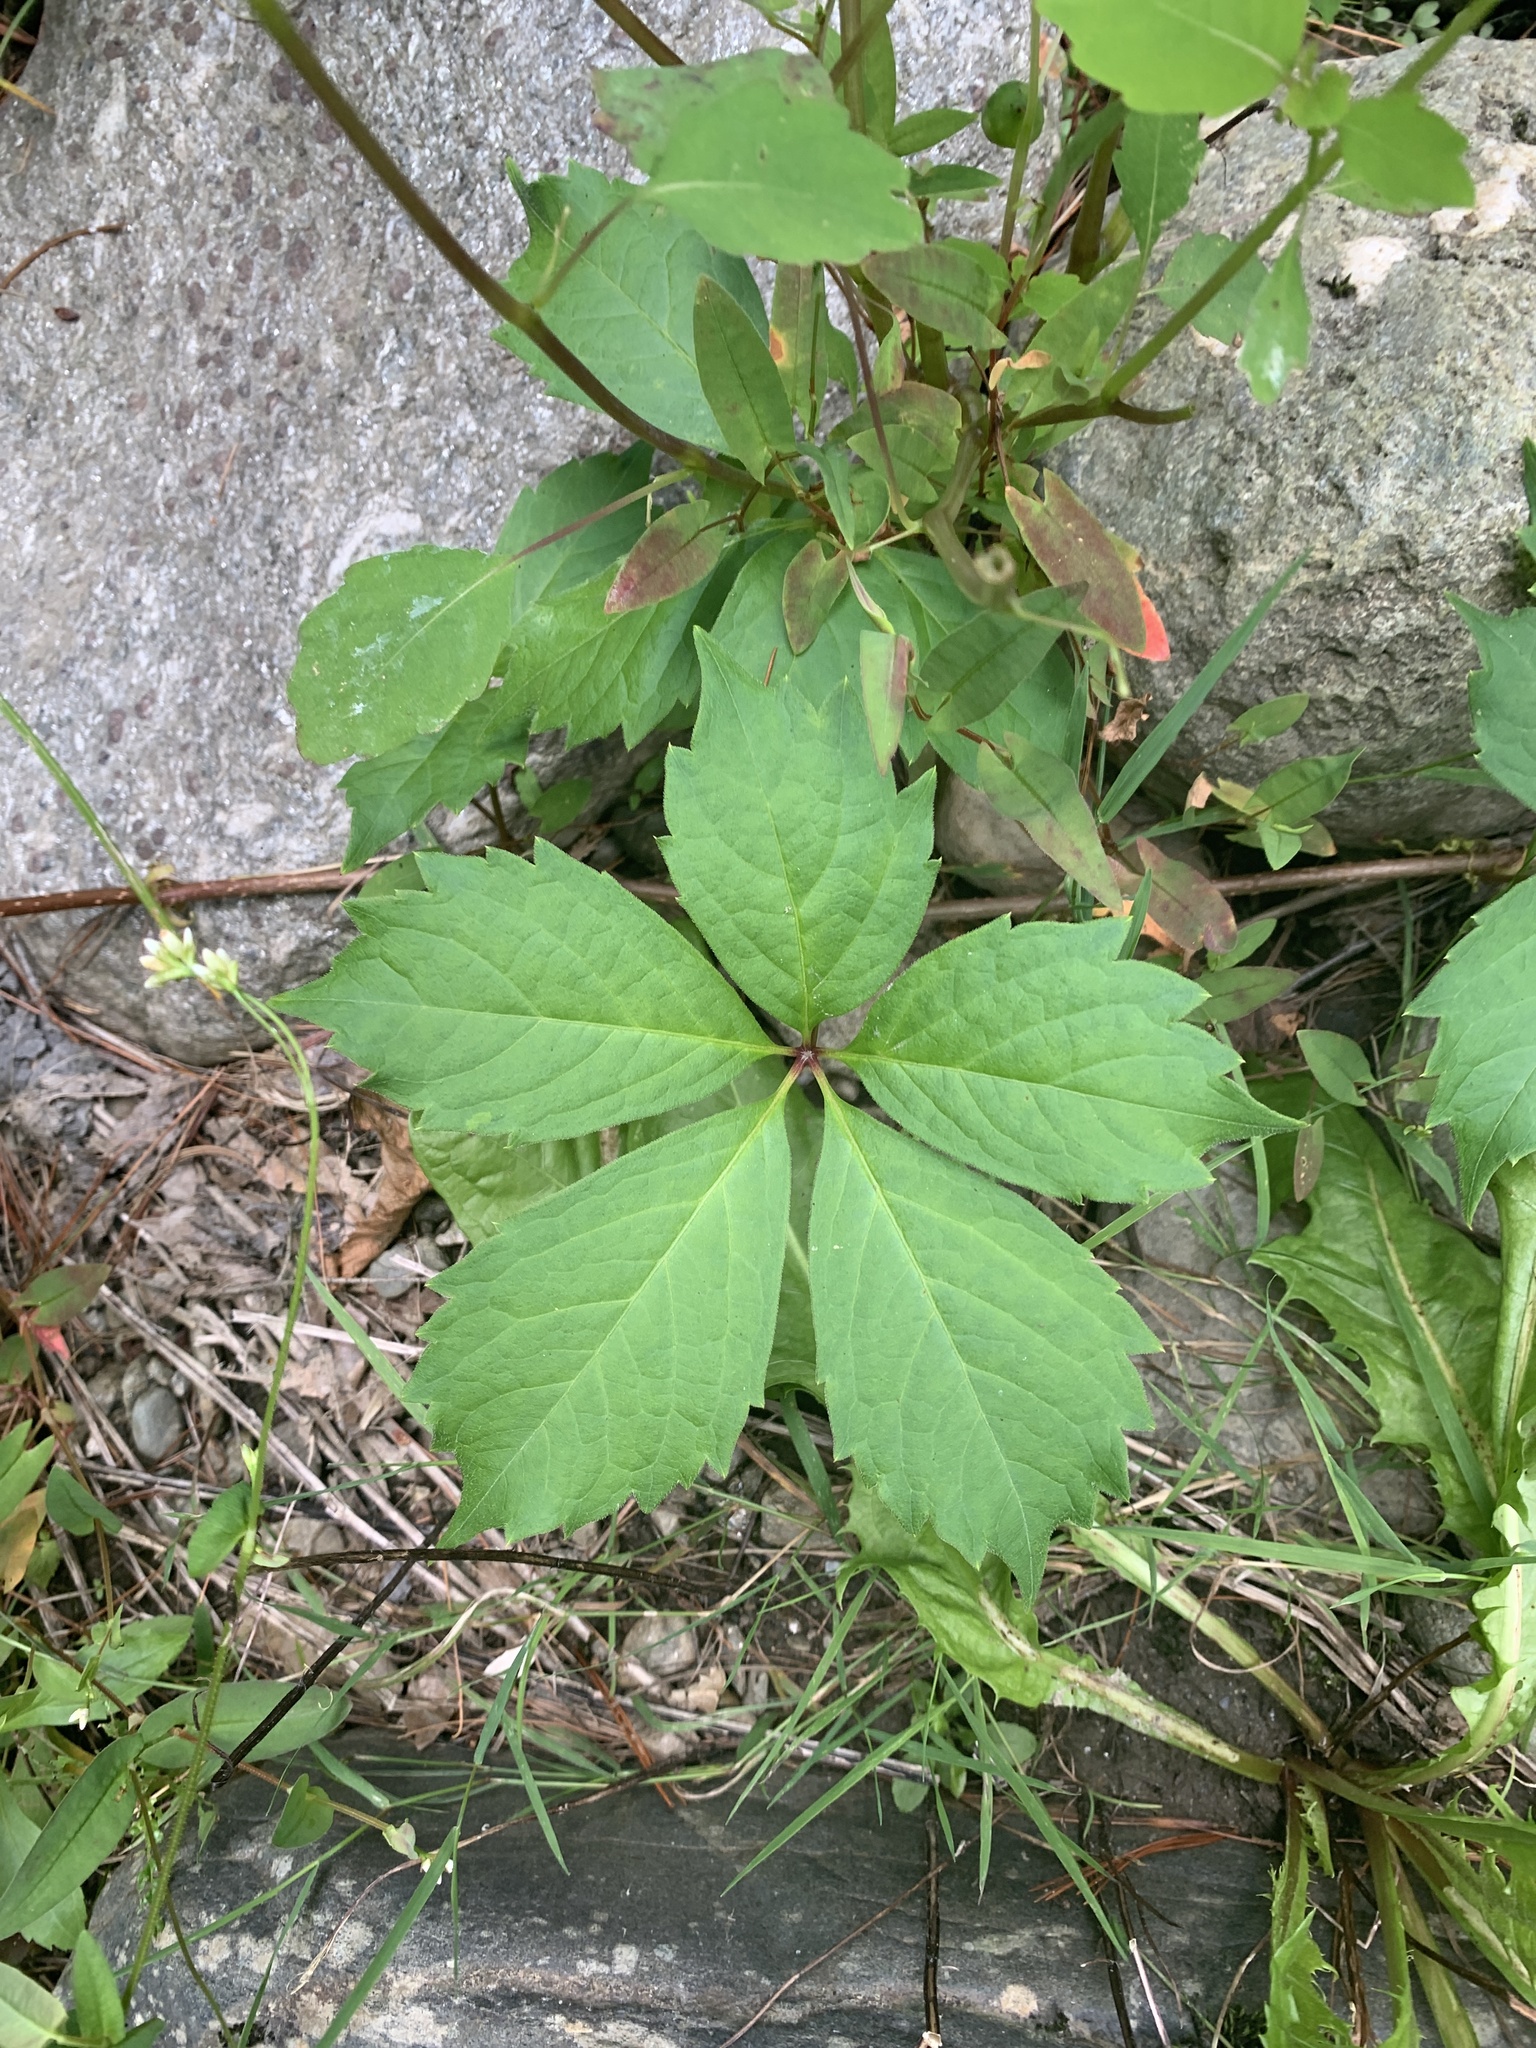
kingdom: Plantae
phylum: Tracheophyta
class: Magnoliopsida
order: Vitales
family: Vitaceae
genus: Parthenocissus
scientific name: Parthenocissus quinquefolia
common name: Virginia-creeper
